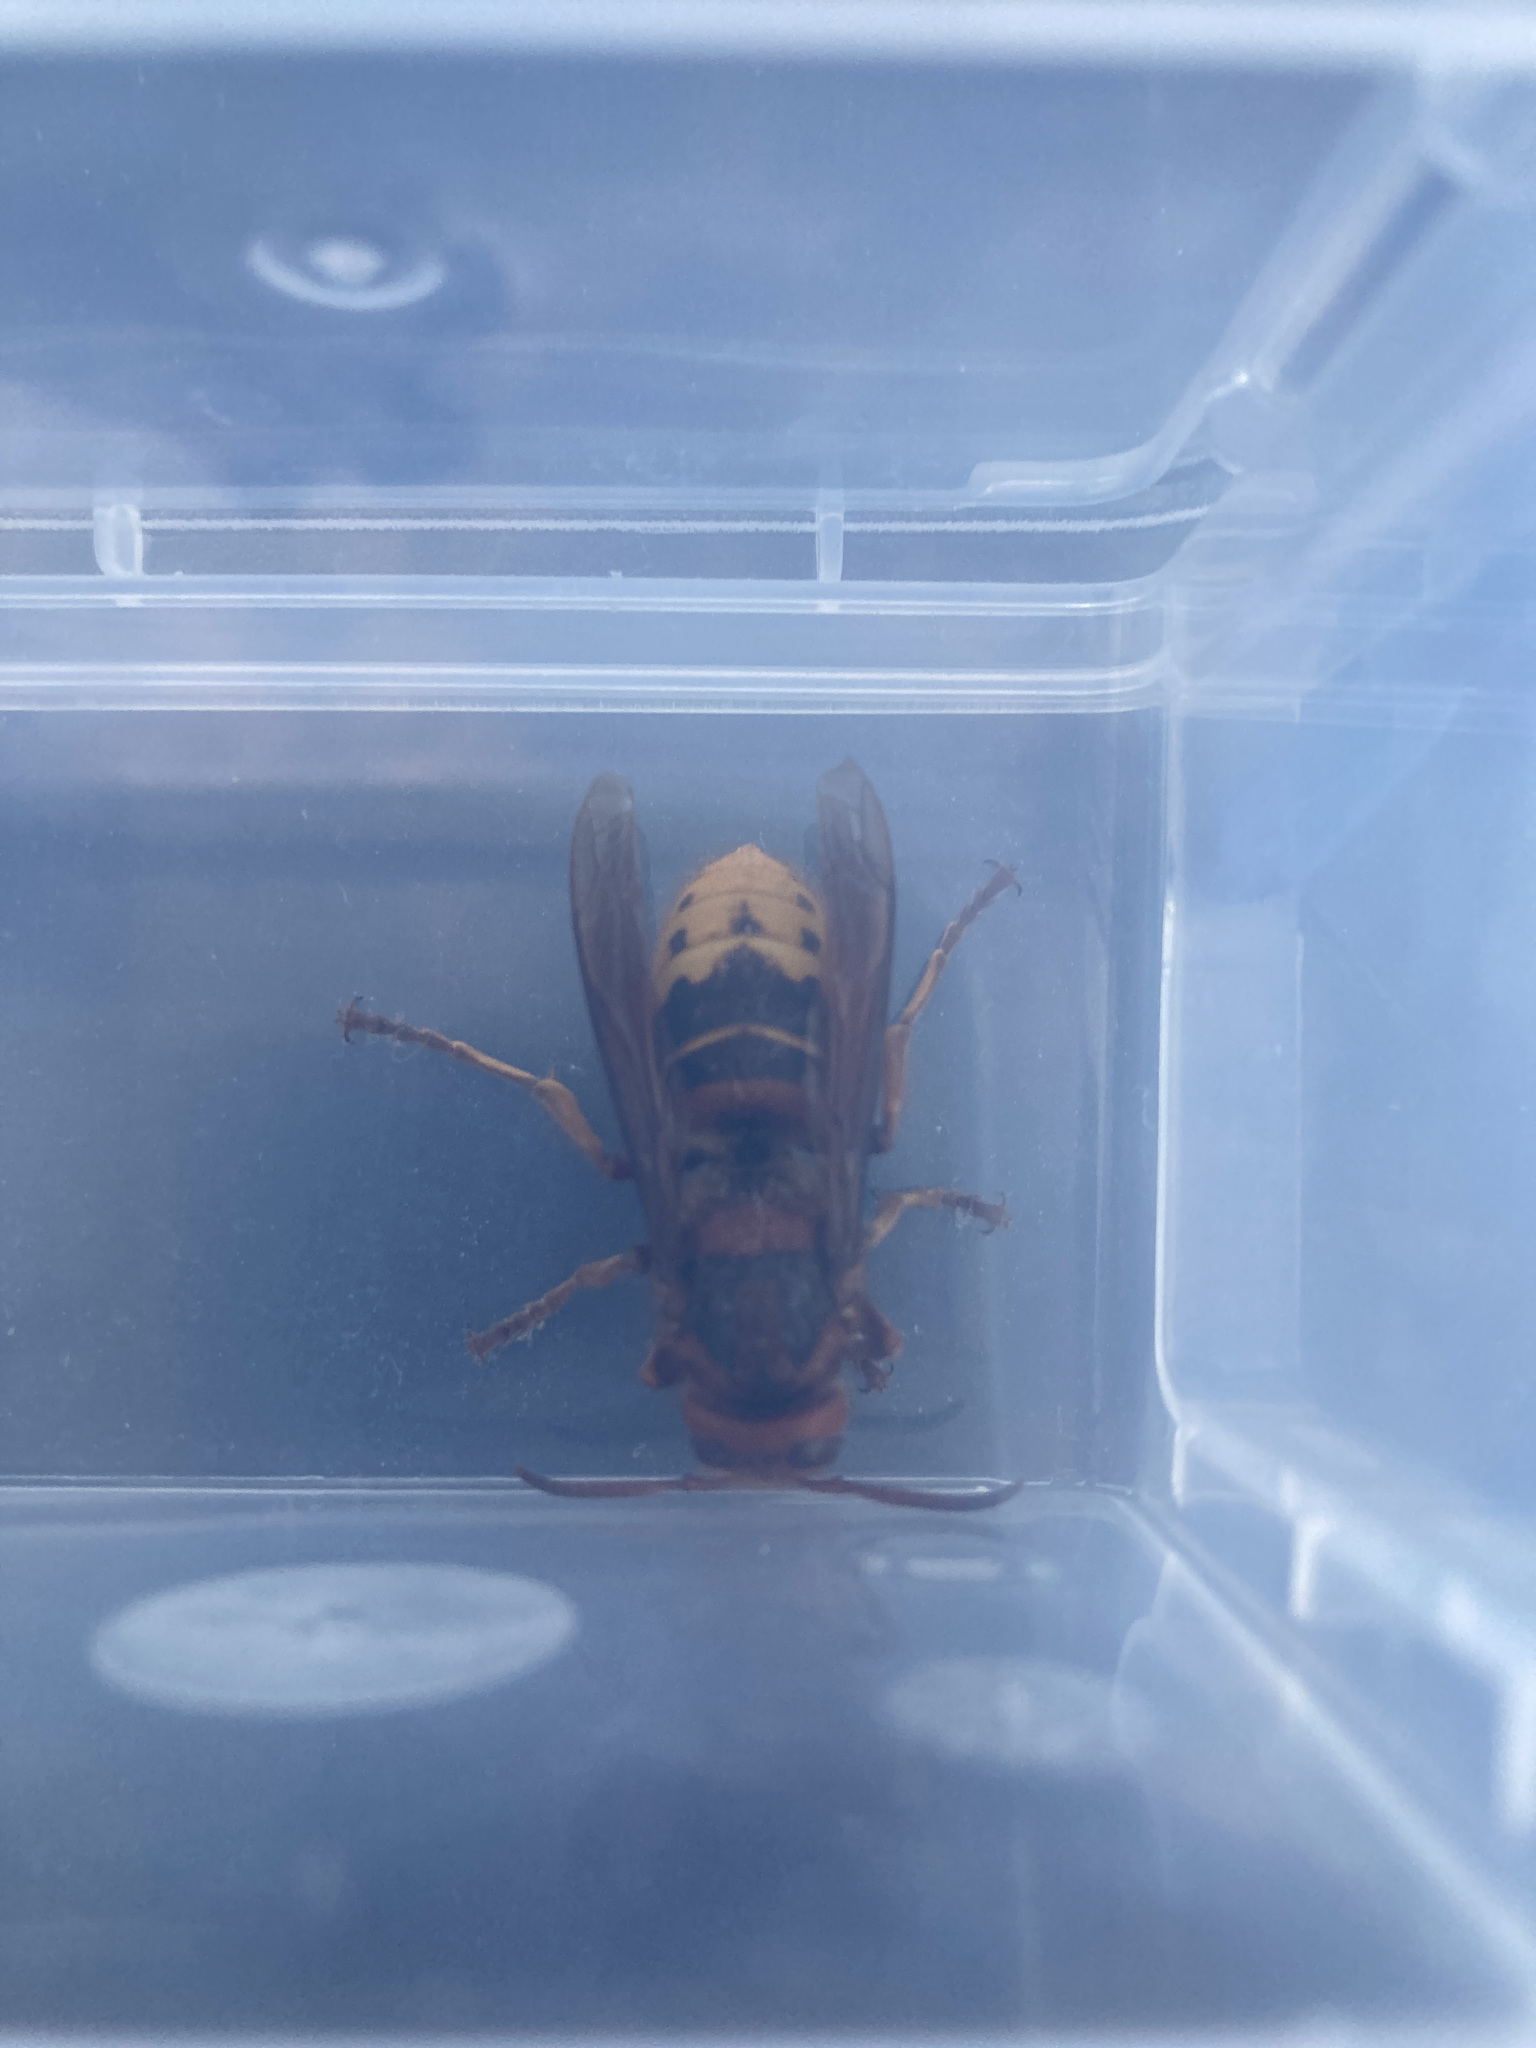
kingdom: Animalia
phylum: Arthropoda
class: Insecta
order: Hymenoptera
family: Vespidae
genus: Vespa
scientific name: Vespa crabro
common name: Hornet
